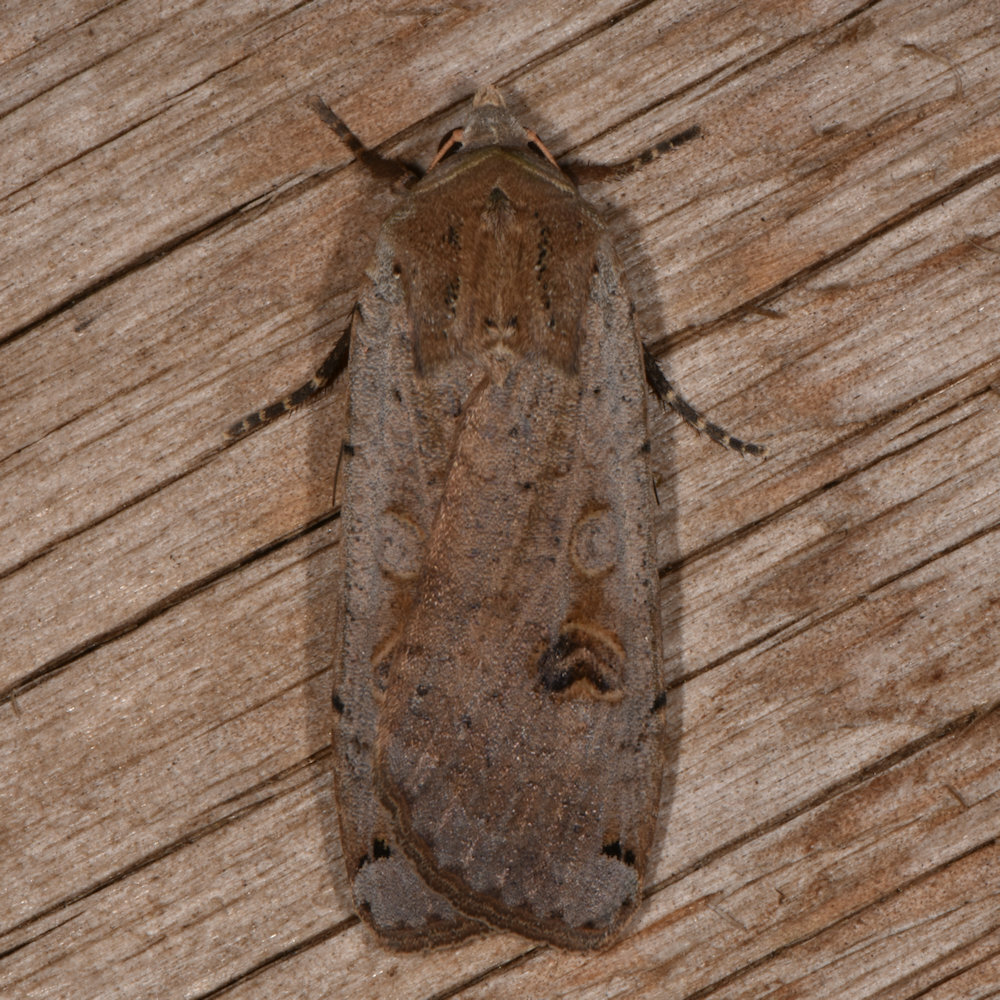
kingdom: Animalia
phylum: Arthropoda
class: Insecta
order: Lepidoptera
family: Noctuidae
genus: Noctua
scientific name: Noctua pronuba
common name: Large yellow underwing
